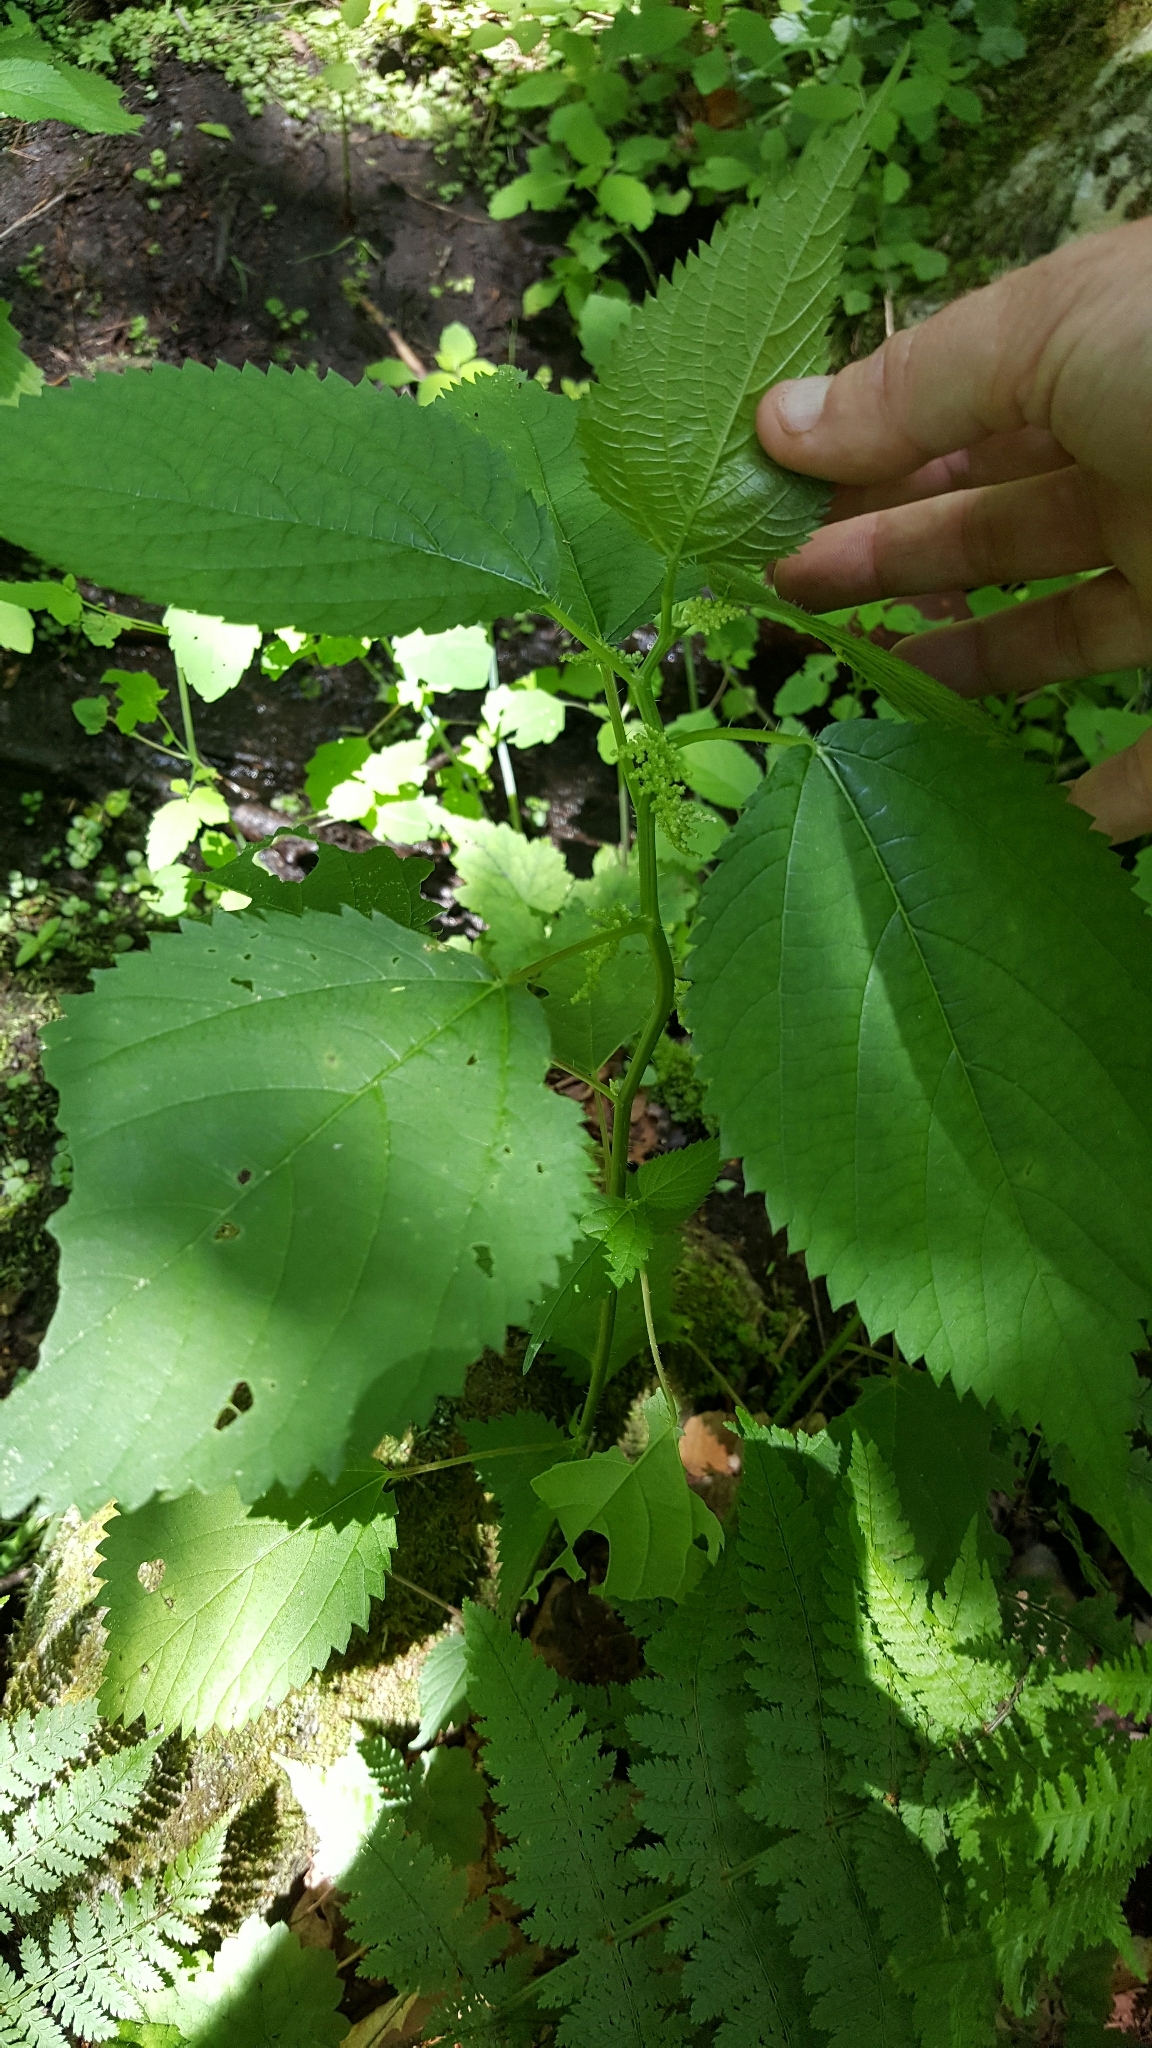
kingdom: Plantae
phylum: Tracheophyta
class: Magnoliopsida
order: Rosales
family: Urticaceae
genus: Laportea
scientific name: Laportea canadensis
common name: Canada nettle
